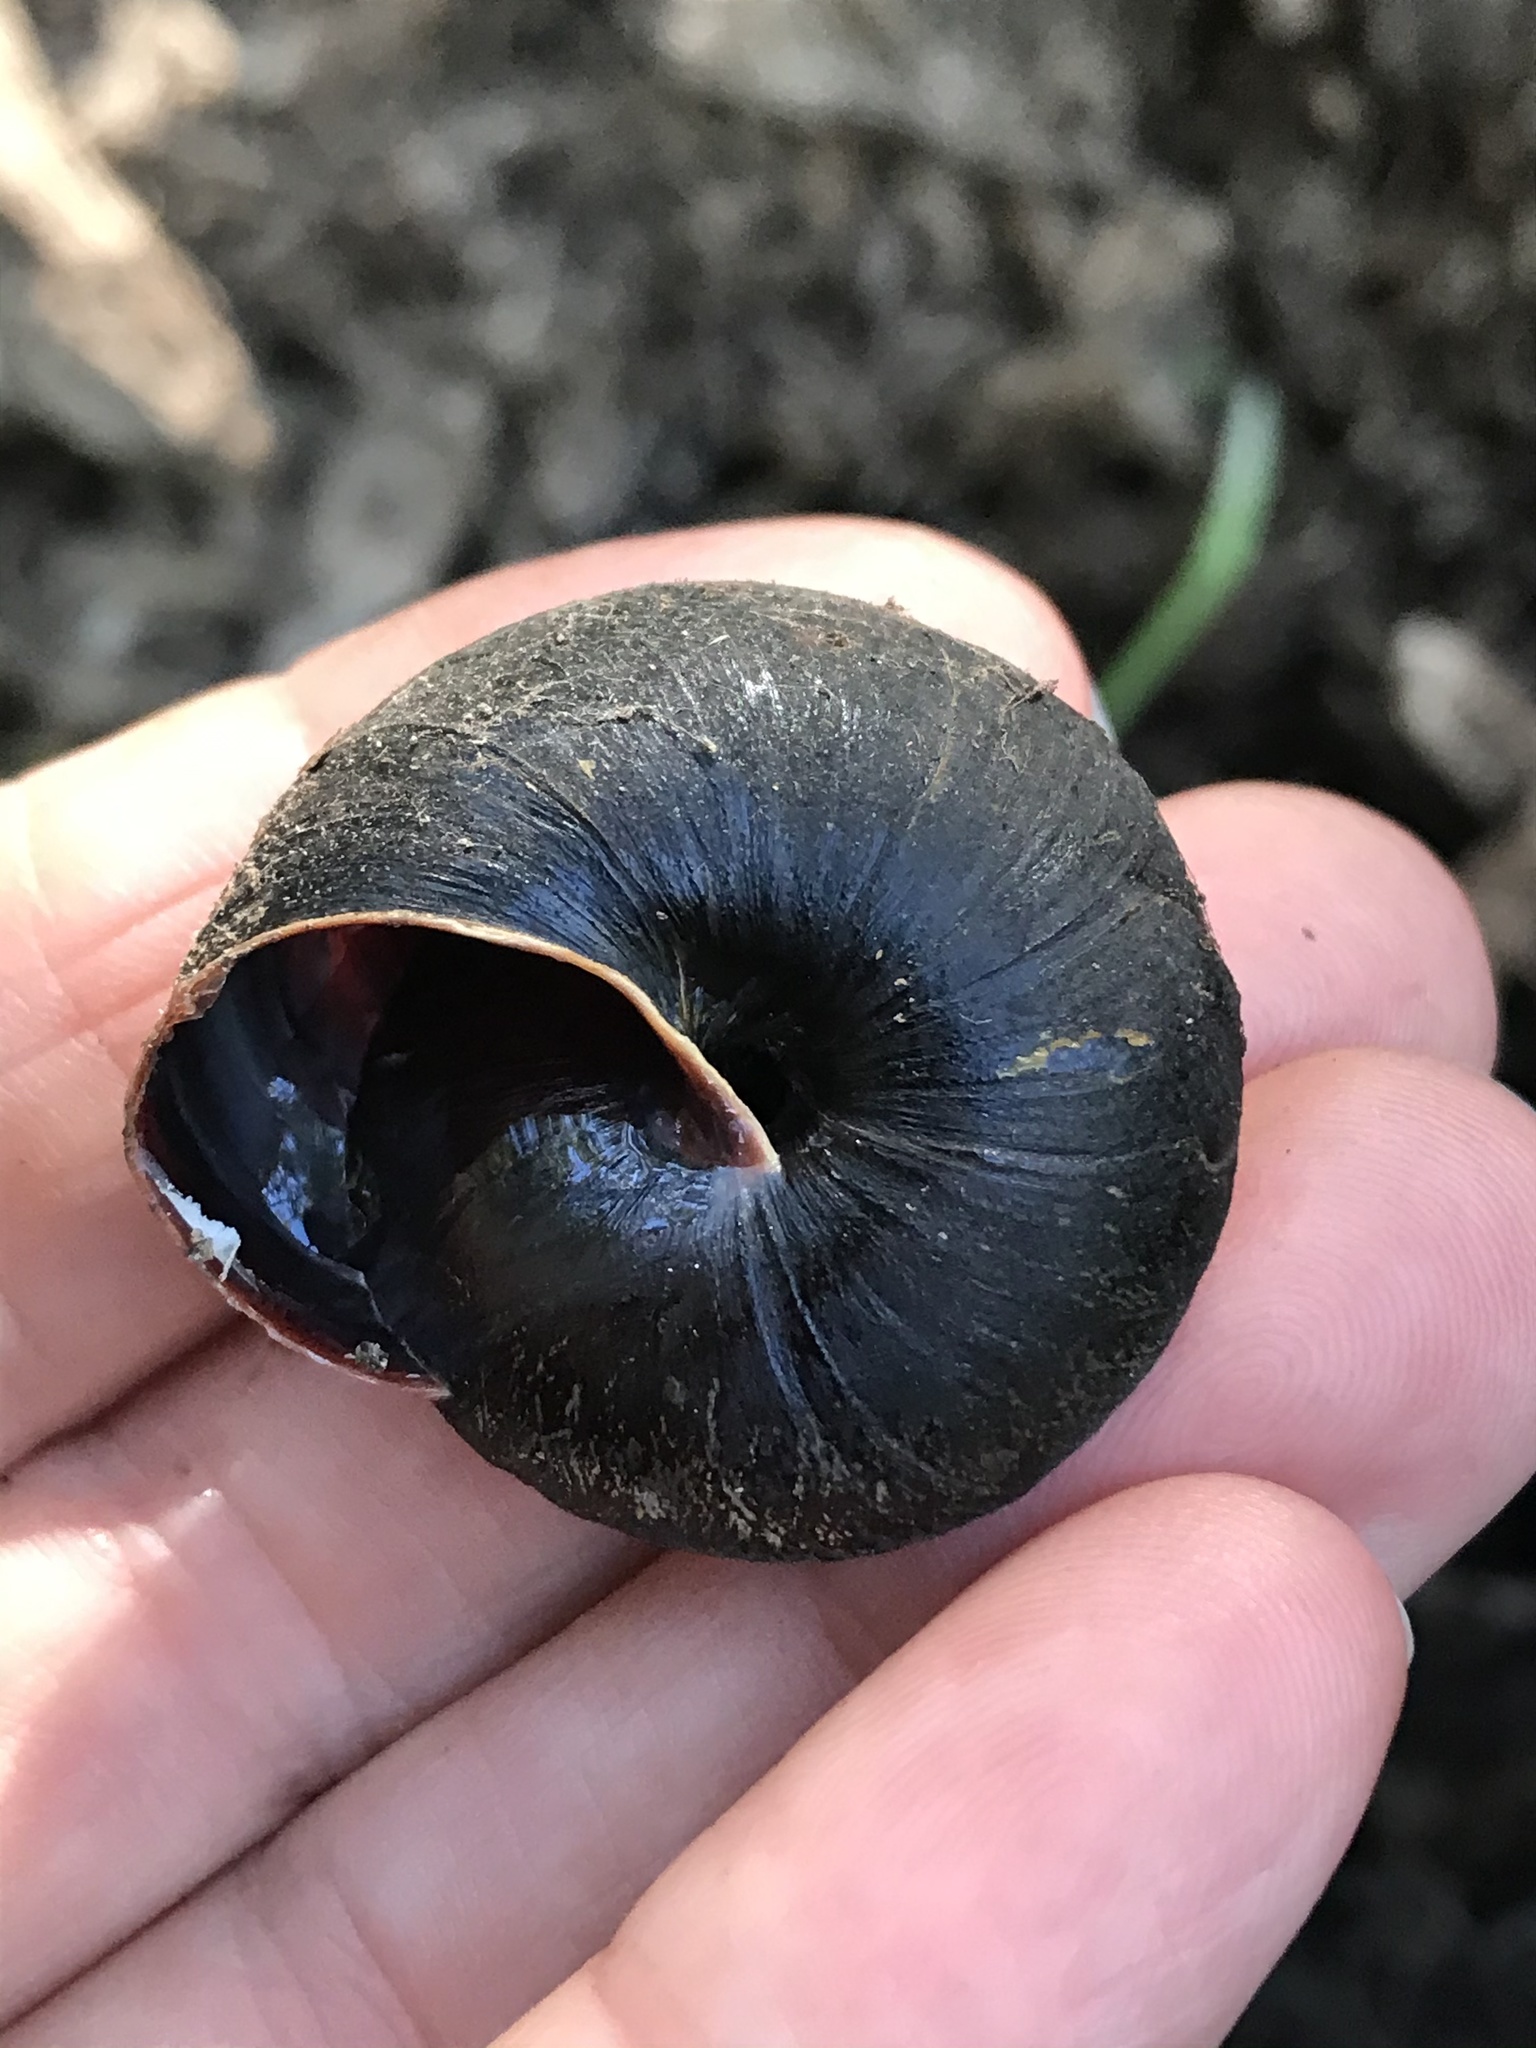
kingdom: Animalia
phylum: Mollusca
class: Gastropoda
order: Stylommatophora
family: Xanthonychidae
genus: Monadenia
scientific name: Monadenia infumata
